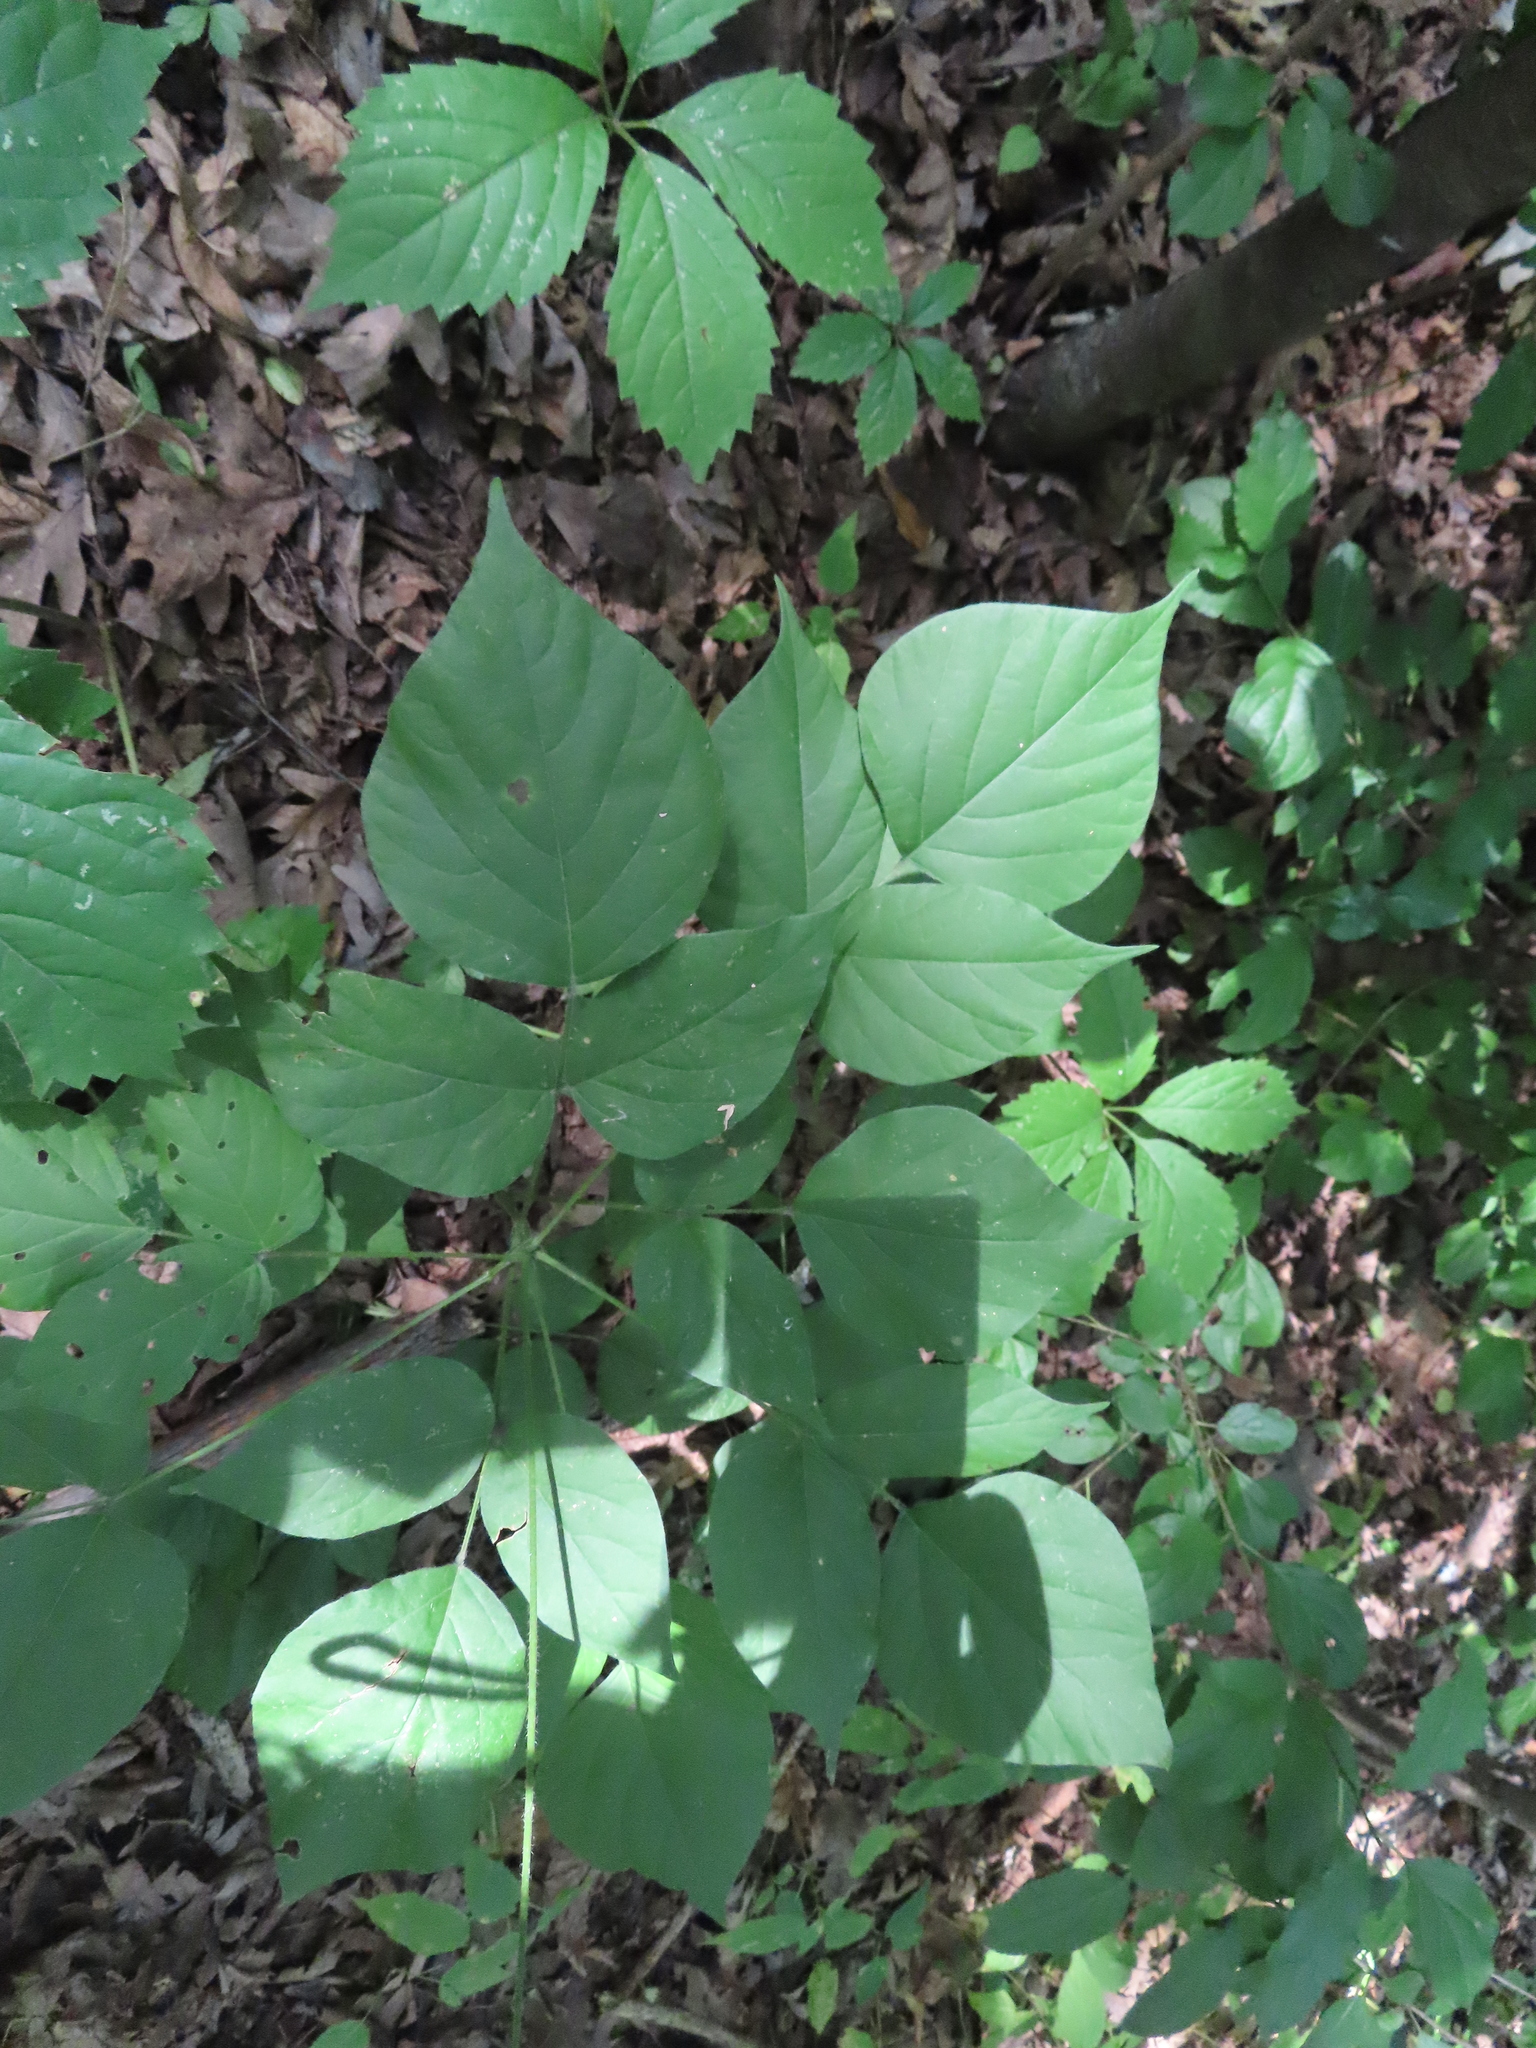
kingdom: Plantae
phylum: Tracheophyta
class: Magnoliopsida
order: Fabales
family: Fabaceae
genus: Hylodesmum
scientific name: Hylodesmum glutinosum
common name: Clustered-leaved tick-trefoil
